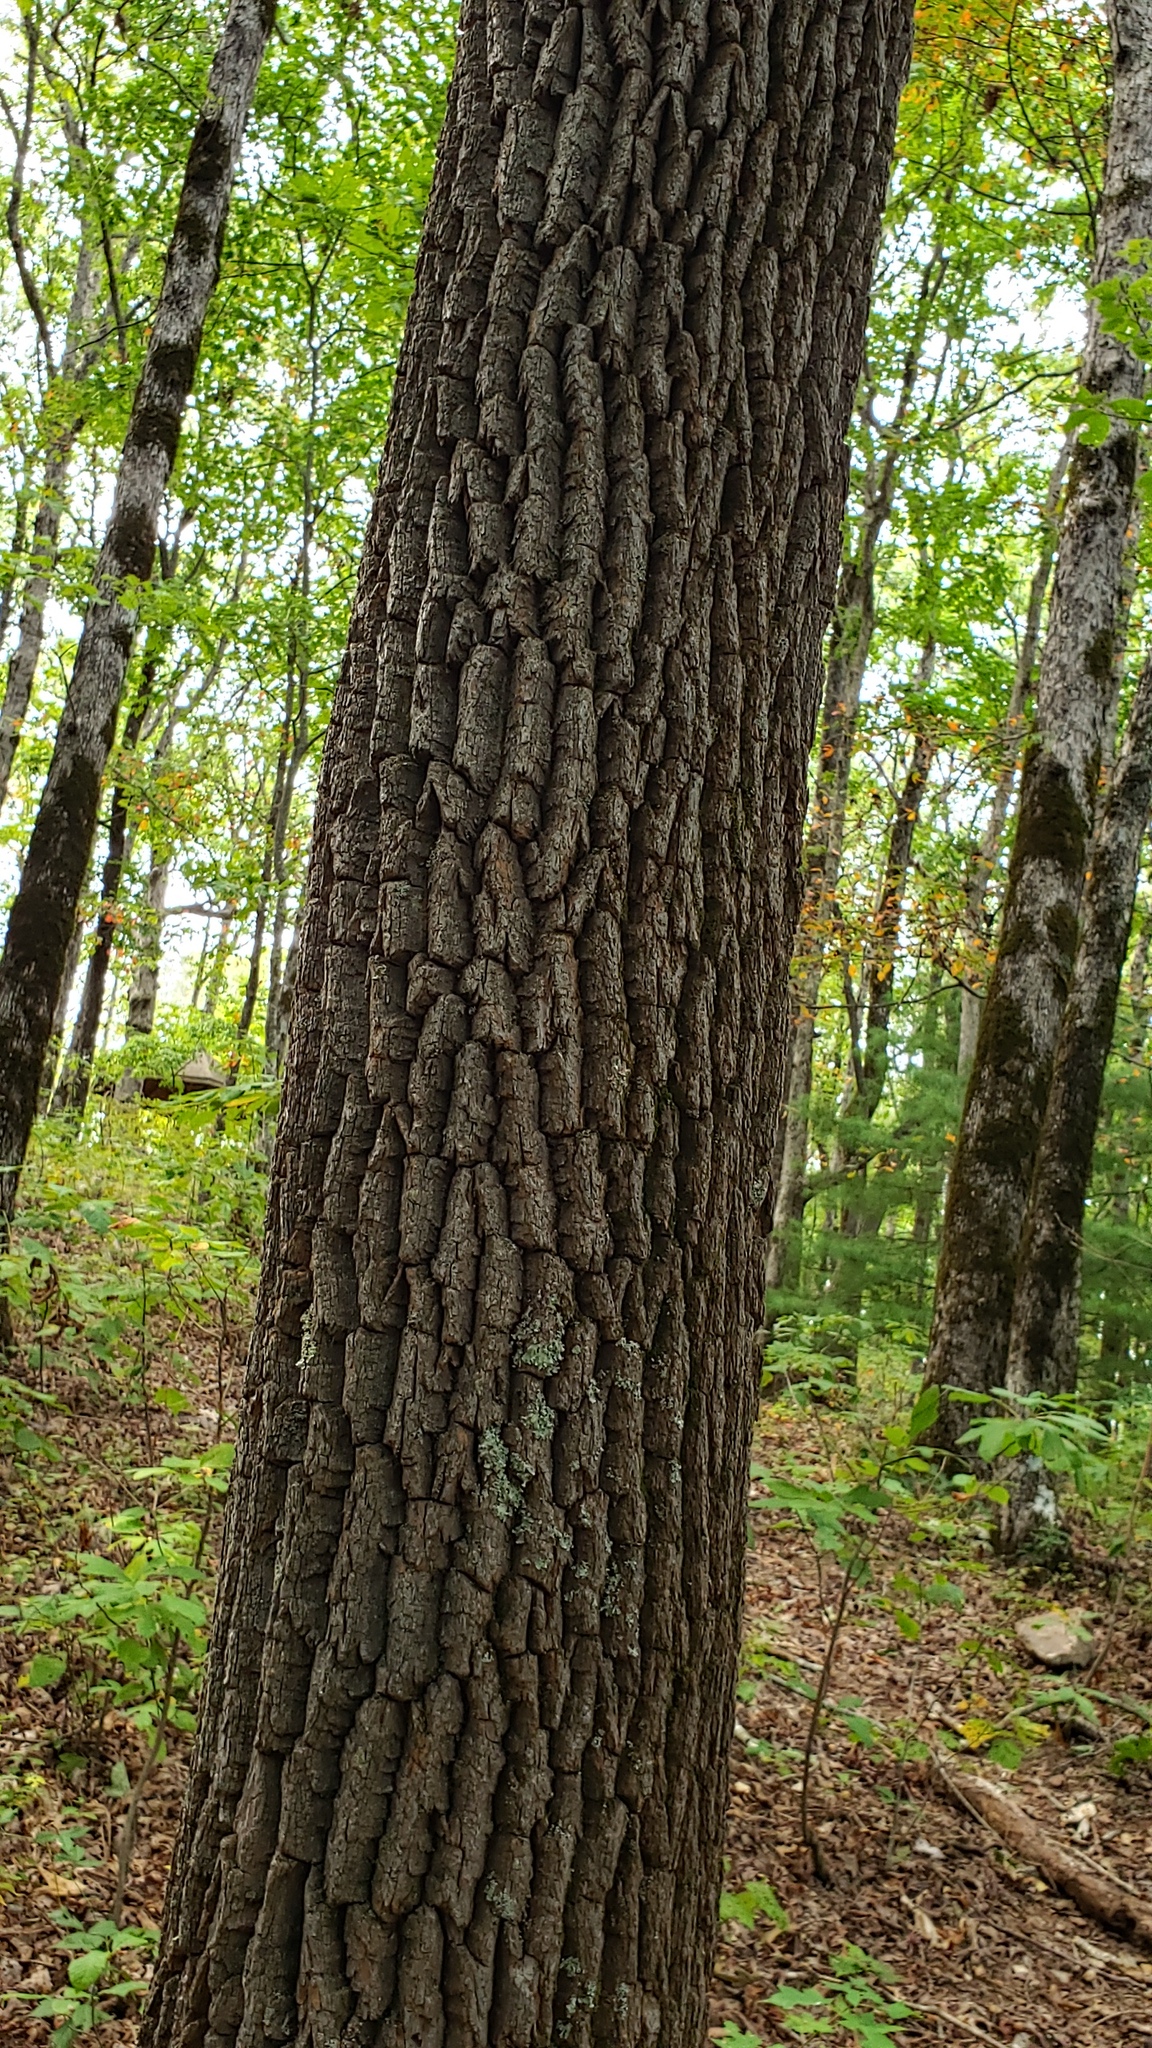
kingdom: Plantae
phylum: Tracheophyta
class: Magnoliopsida
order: Ericales
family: Ericaceae
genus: Oxydendrum
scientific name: Oxydendrum arboreum
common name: Sourwood
